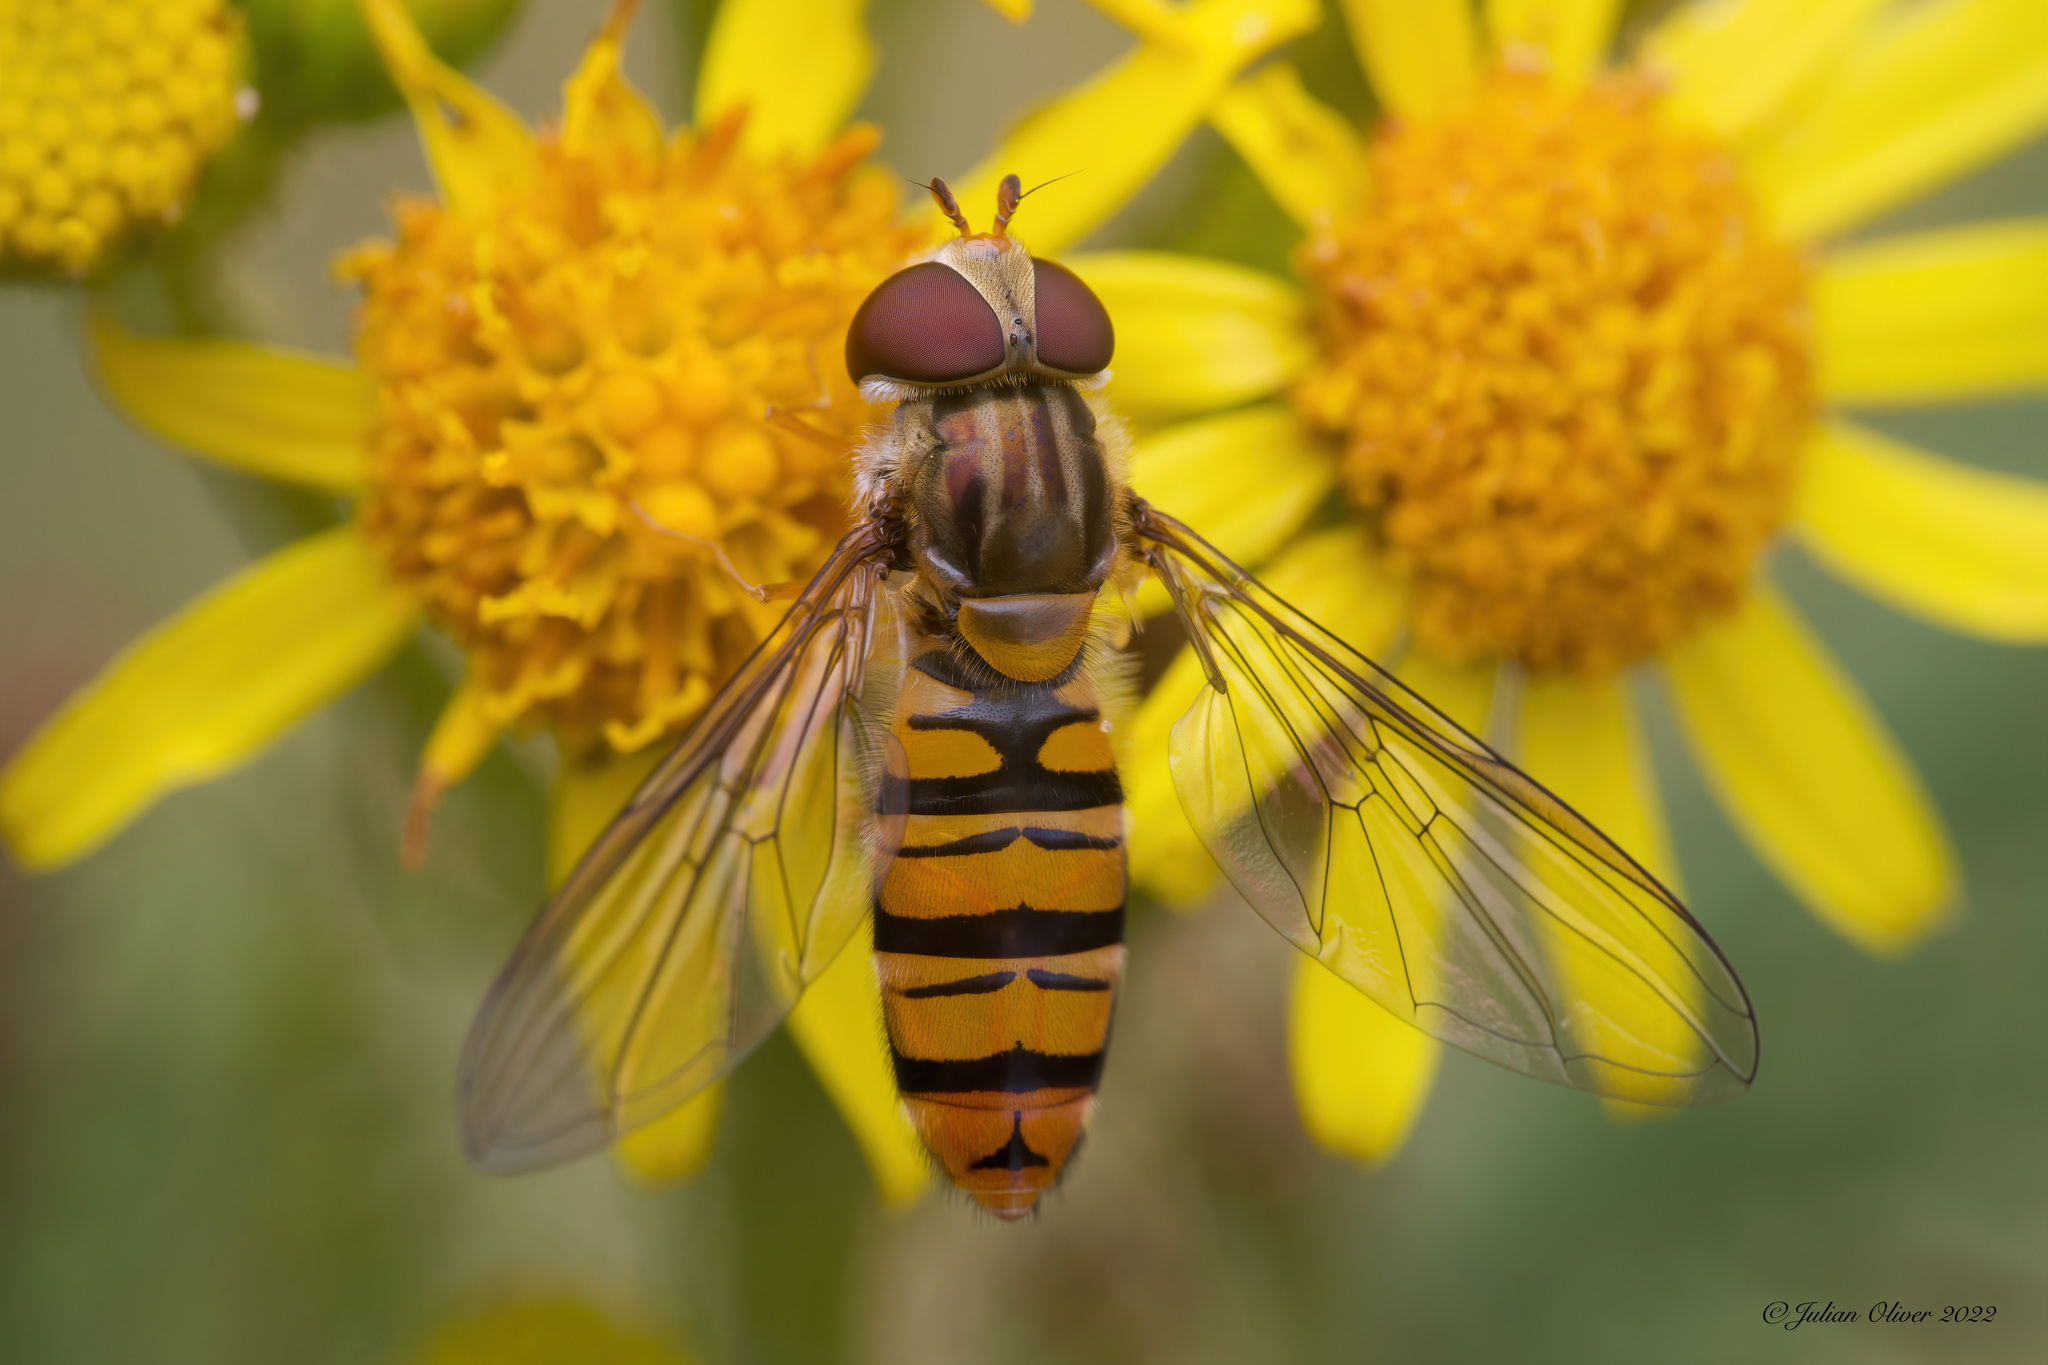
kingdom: Animalia
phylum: Arthropoda
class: Insecta
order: Diptera
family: Syrphidae
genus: Episyrphus
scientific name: Episyrphus balteatus
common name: Marmalade hoverfly
